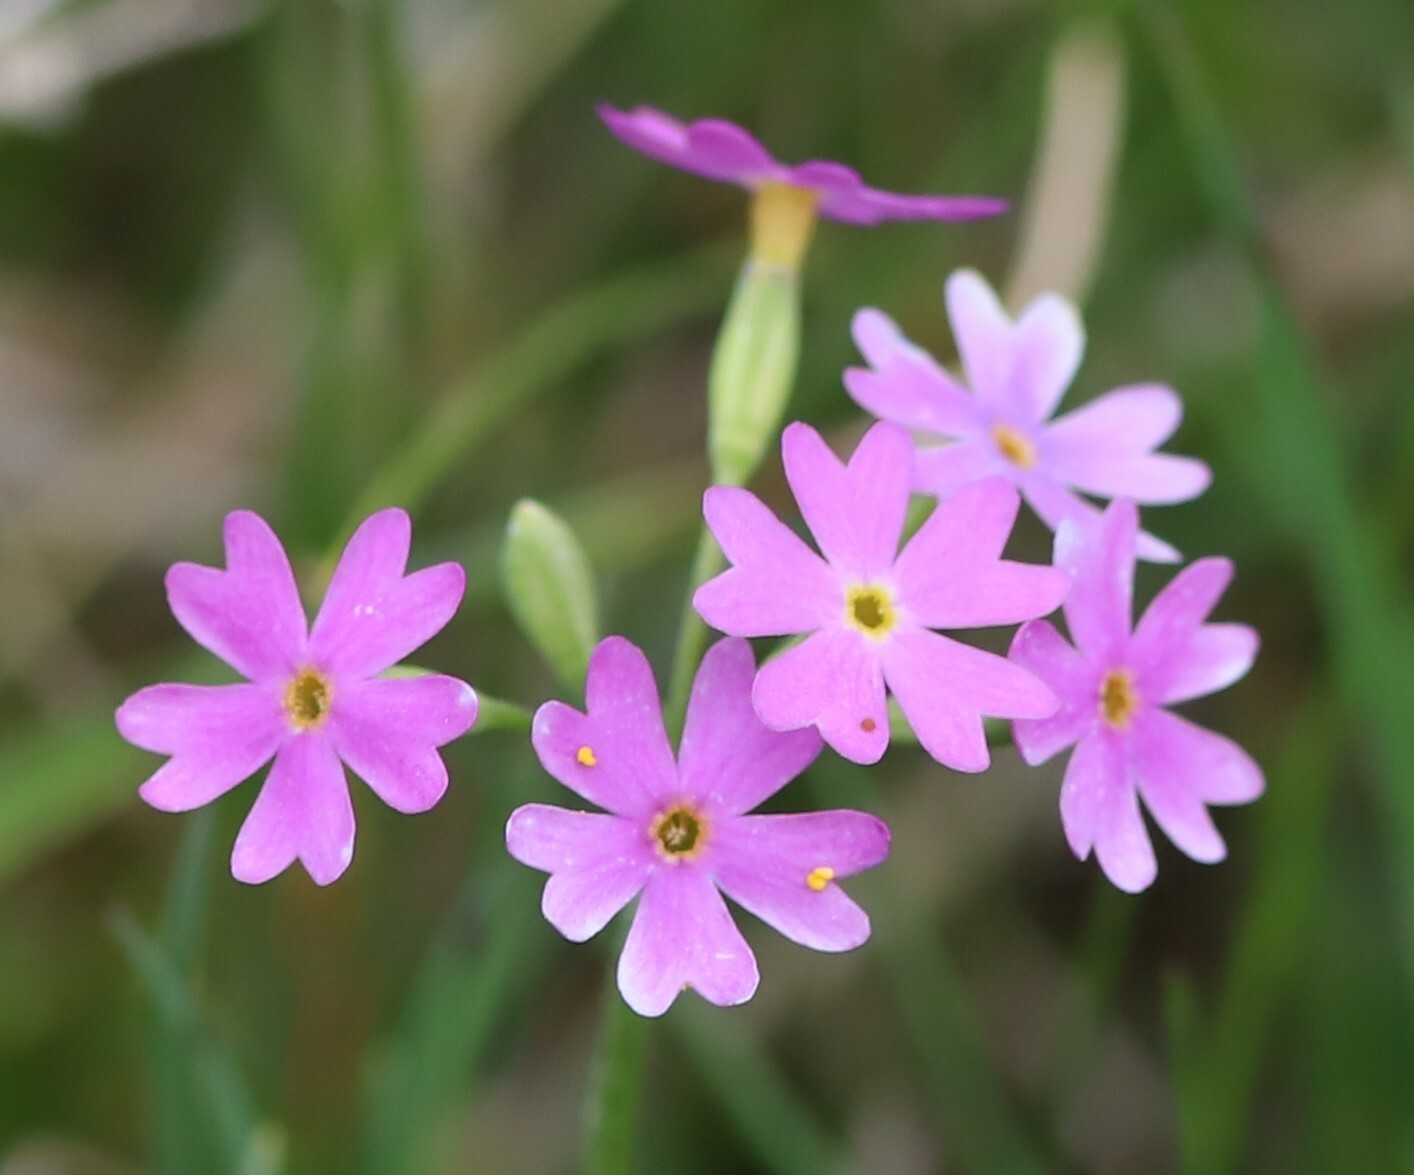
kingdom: Plantae
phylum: Tracheophyta
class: Magnoliopsida
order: Ericales
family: Primulaceae
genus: Primula
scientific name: Primula farinosa
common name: Bird's-eye primrose
